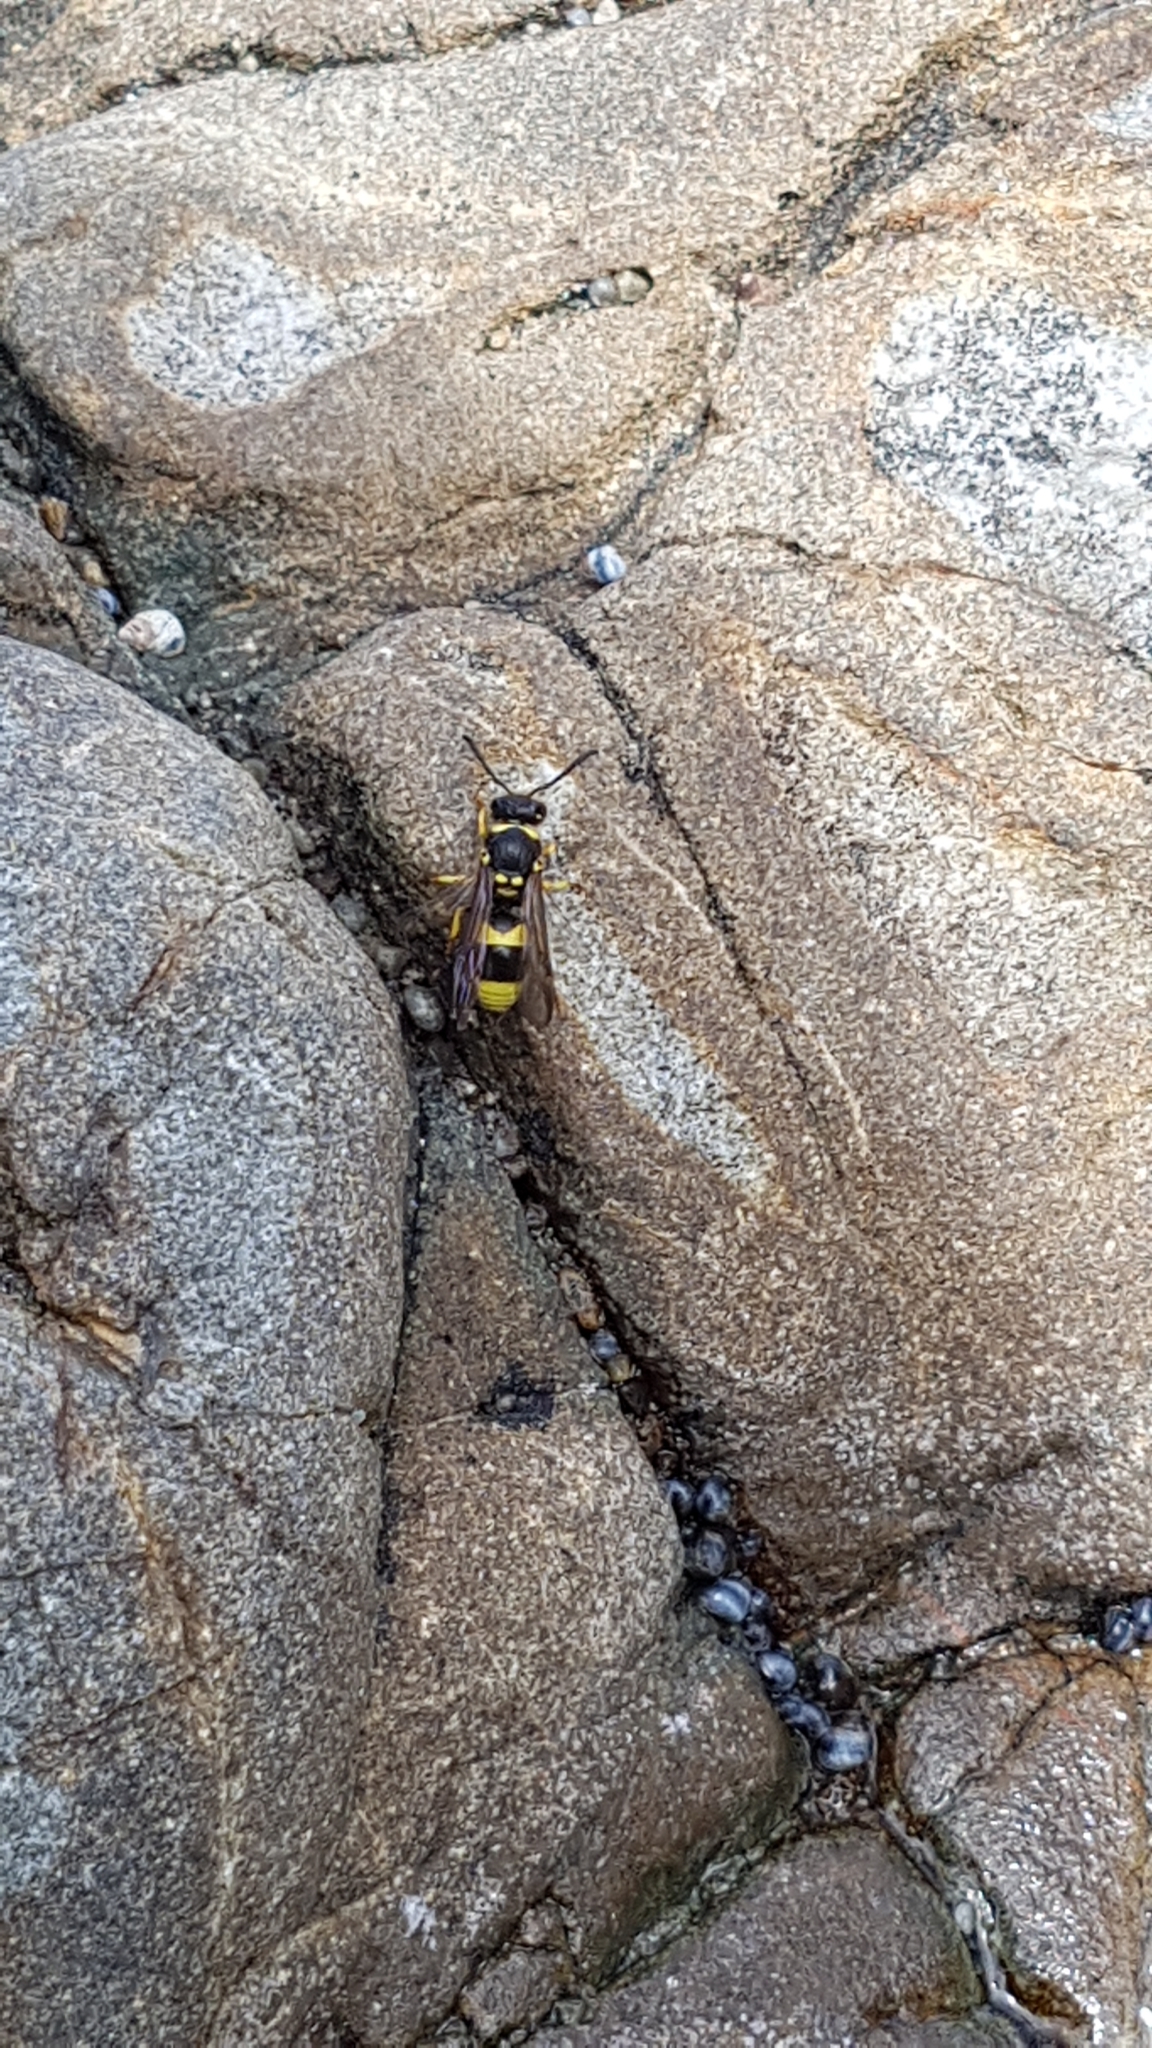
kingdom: Animalia
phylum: Arthropoda
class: Insecta
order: Hymenoptera
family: Vespidae
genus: Ancistrocerus
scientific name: Ancistrocerus gazella
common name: European tube wasp
